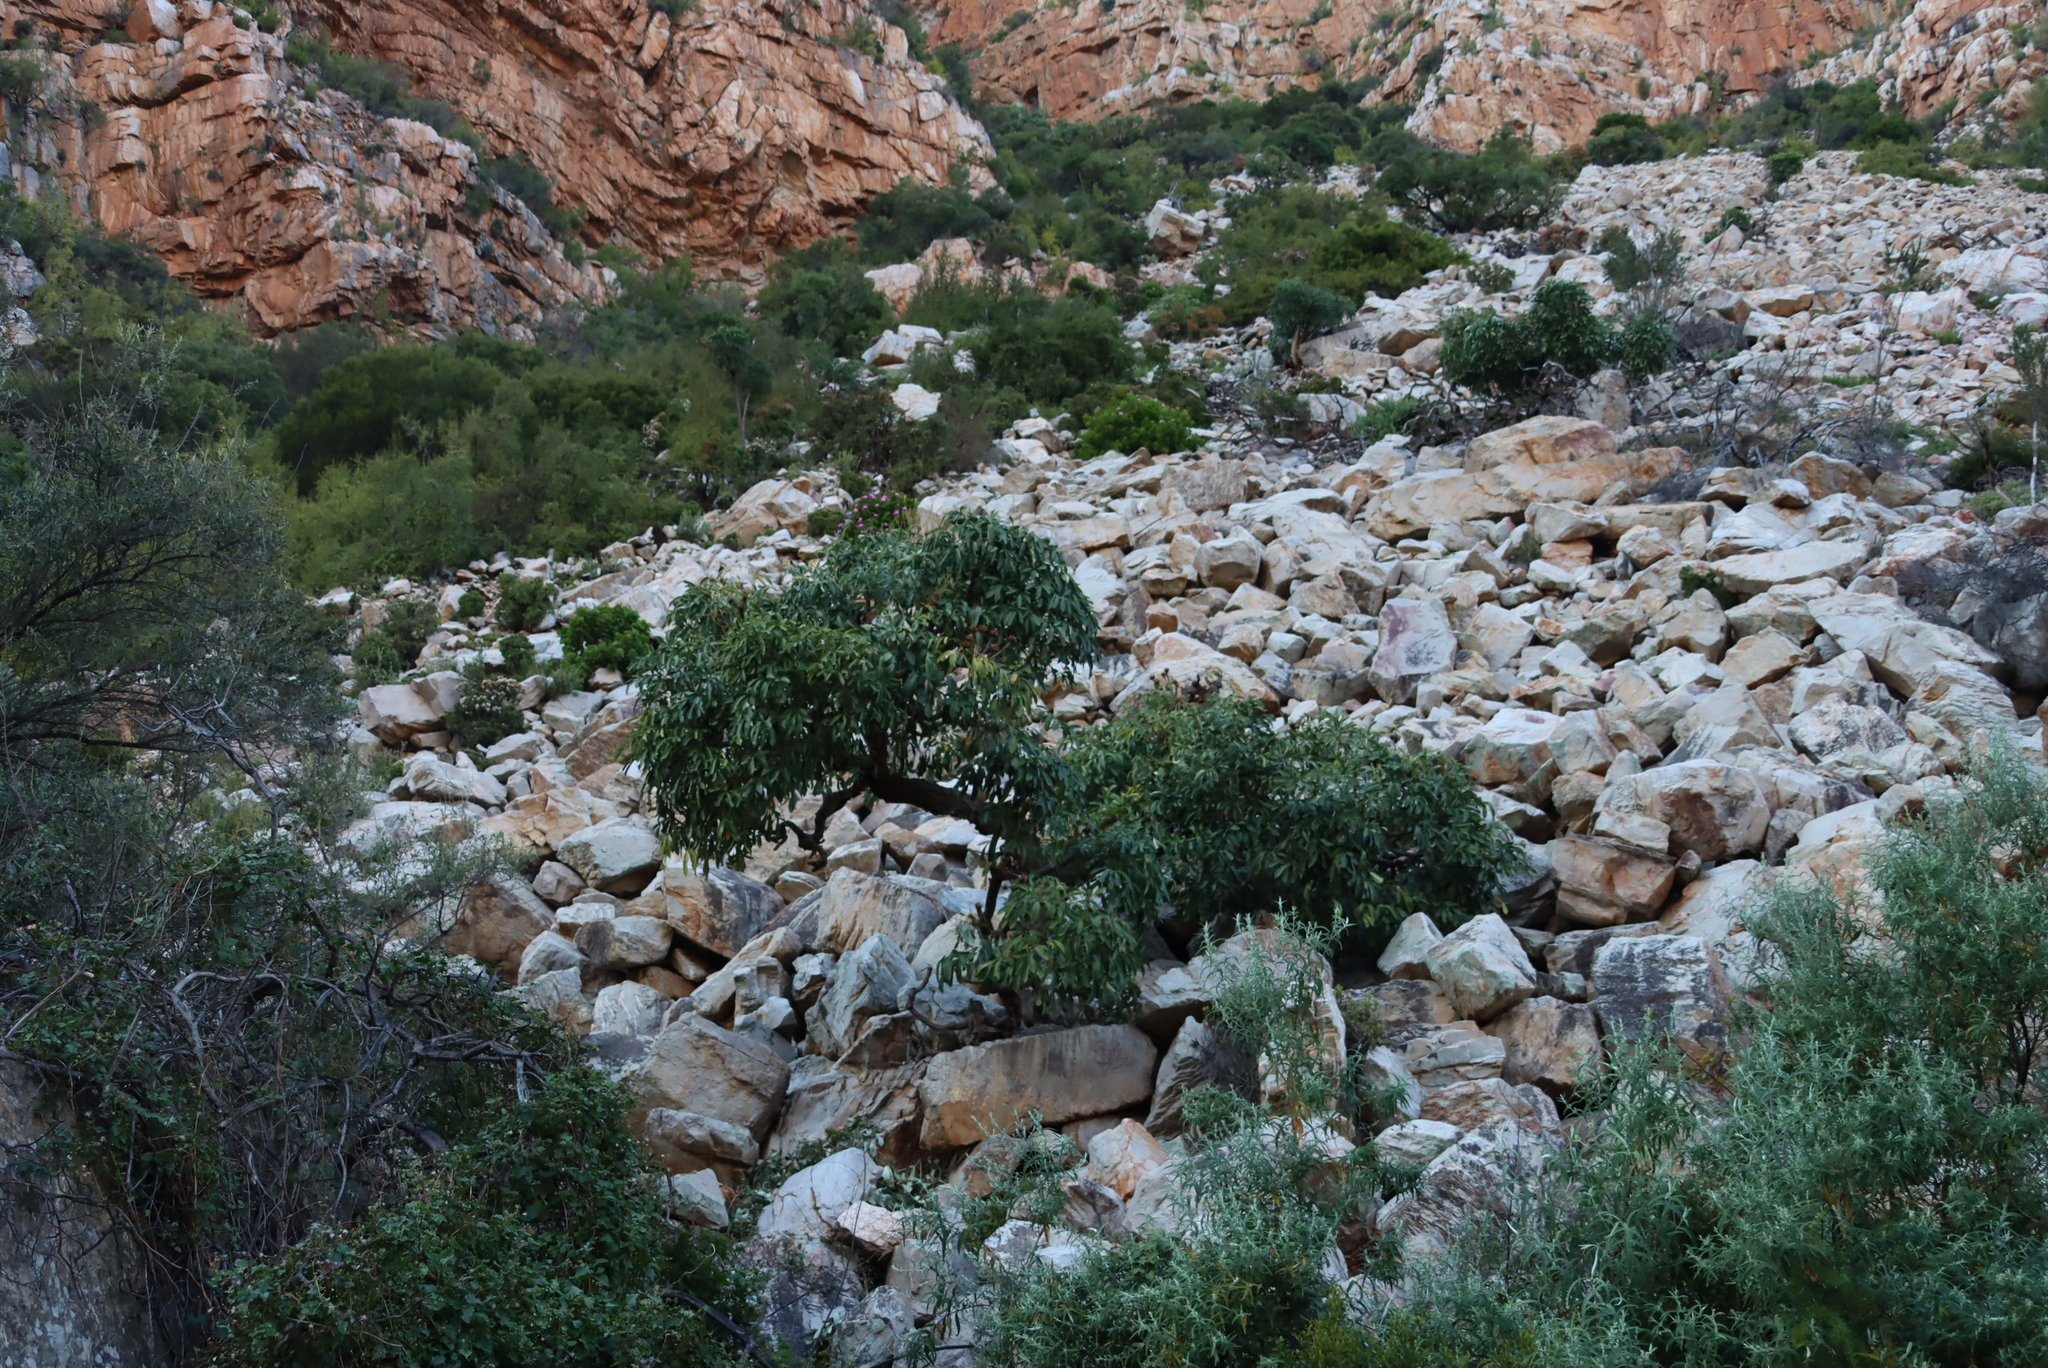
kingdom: Plantae
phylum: Tracheophyta
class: Magnoliopsida
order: Apiales
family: Araliaceae
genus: Cussonia
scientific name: Cussonia spicata
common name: Common cabbagetree
